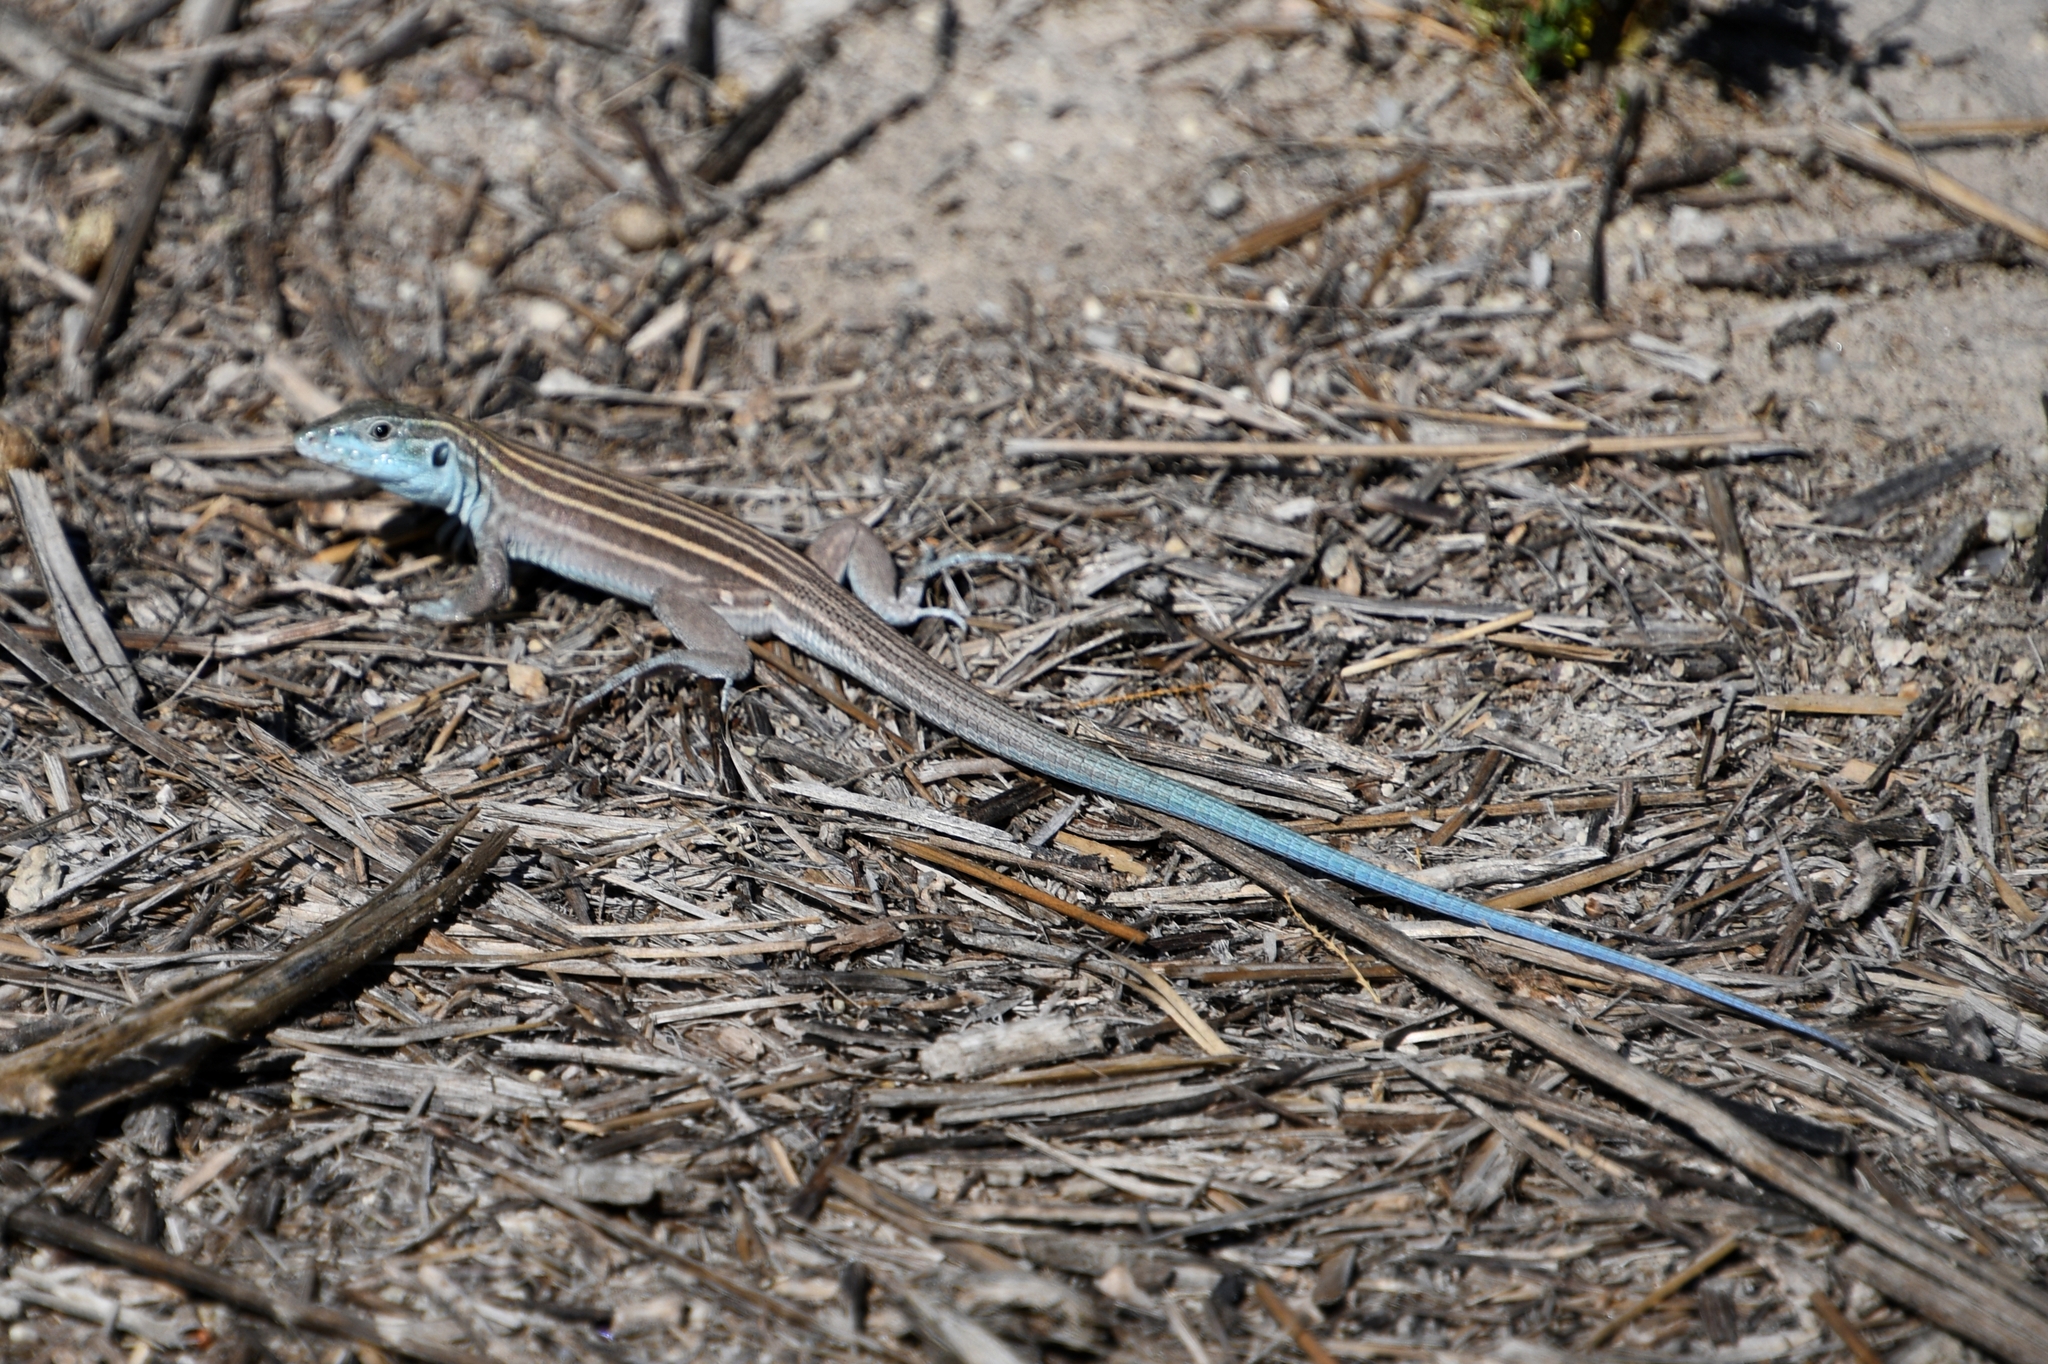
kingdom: Animalia
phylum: Chordata
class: Squamata
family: Teiidae
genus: Aspidoscelis
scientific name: Aspidoscelis inornatus
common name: Little striped whiptail
